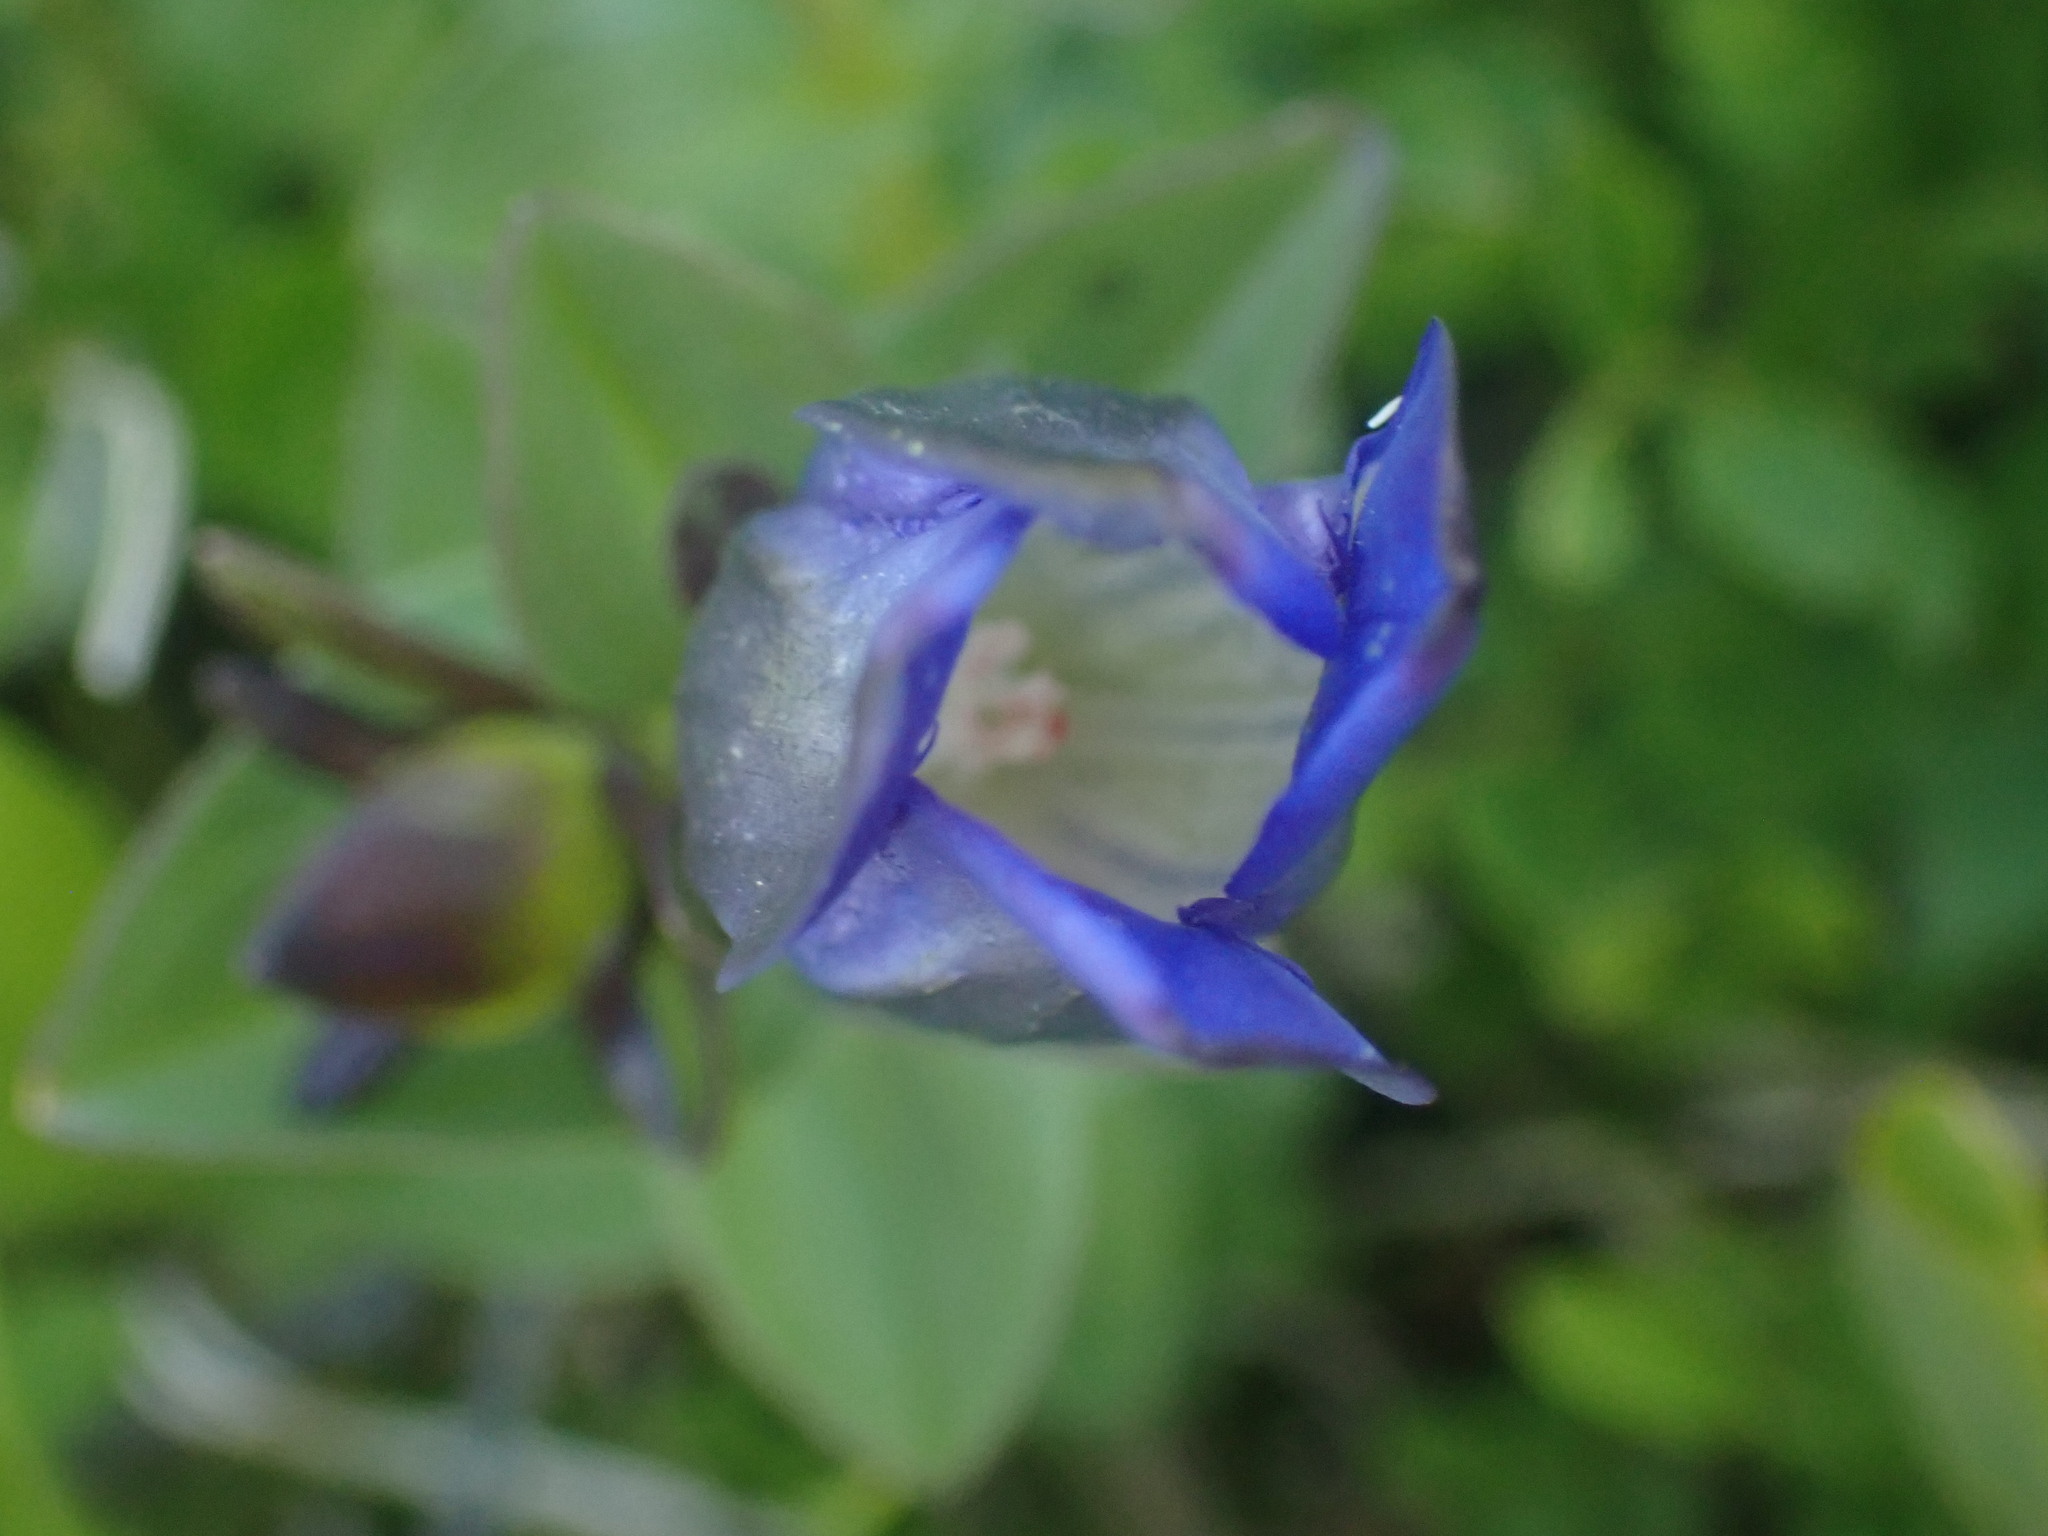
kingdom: Plantae
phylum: Tracheophyta
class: Magnoliopsida
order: Gentianales
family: Gentianaceae
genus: Gentiana
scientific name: Gentiana calycosa
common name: Rainier pleated gentian
